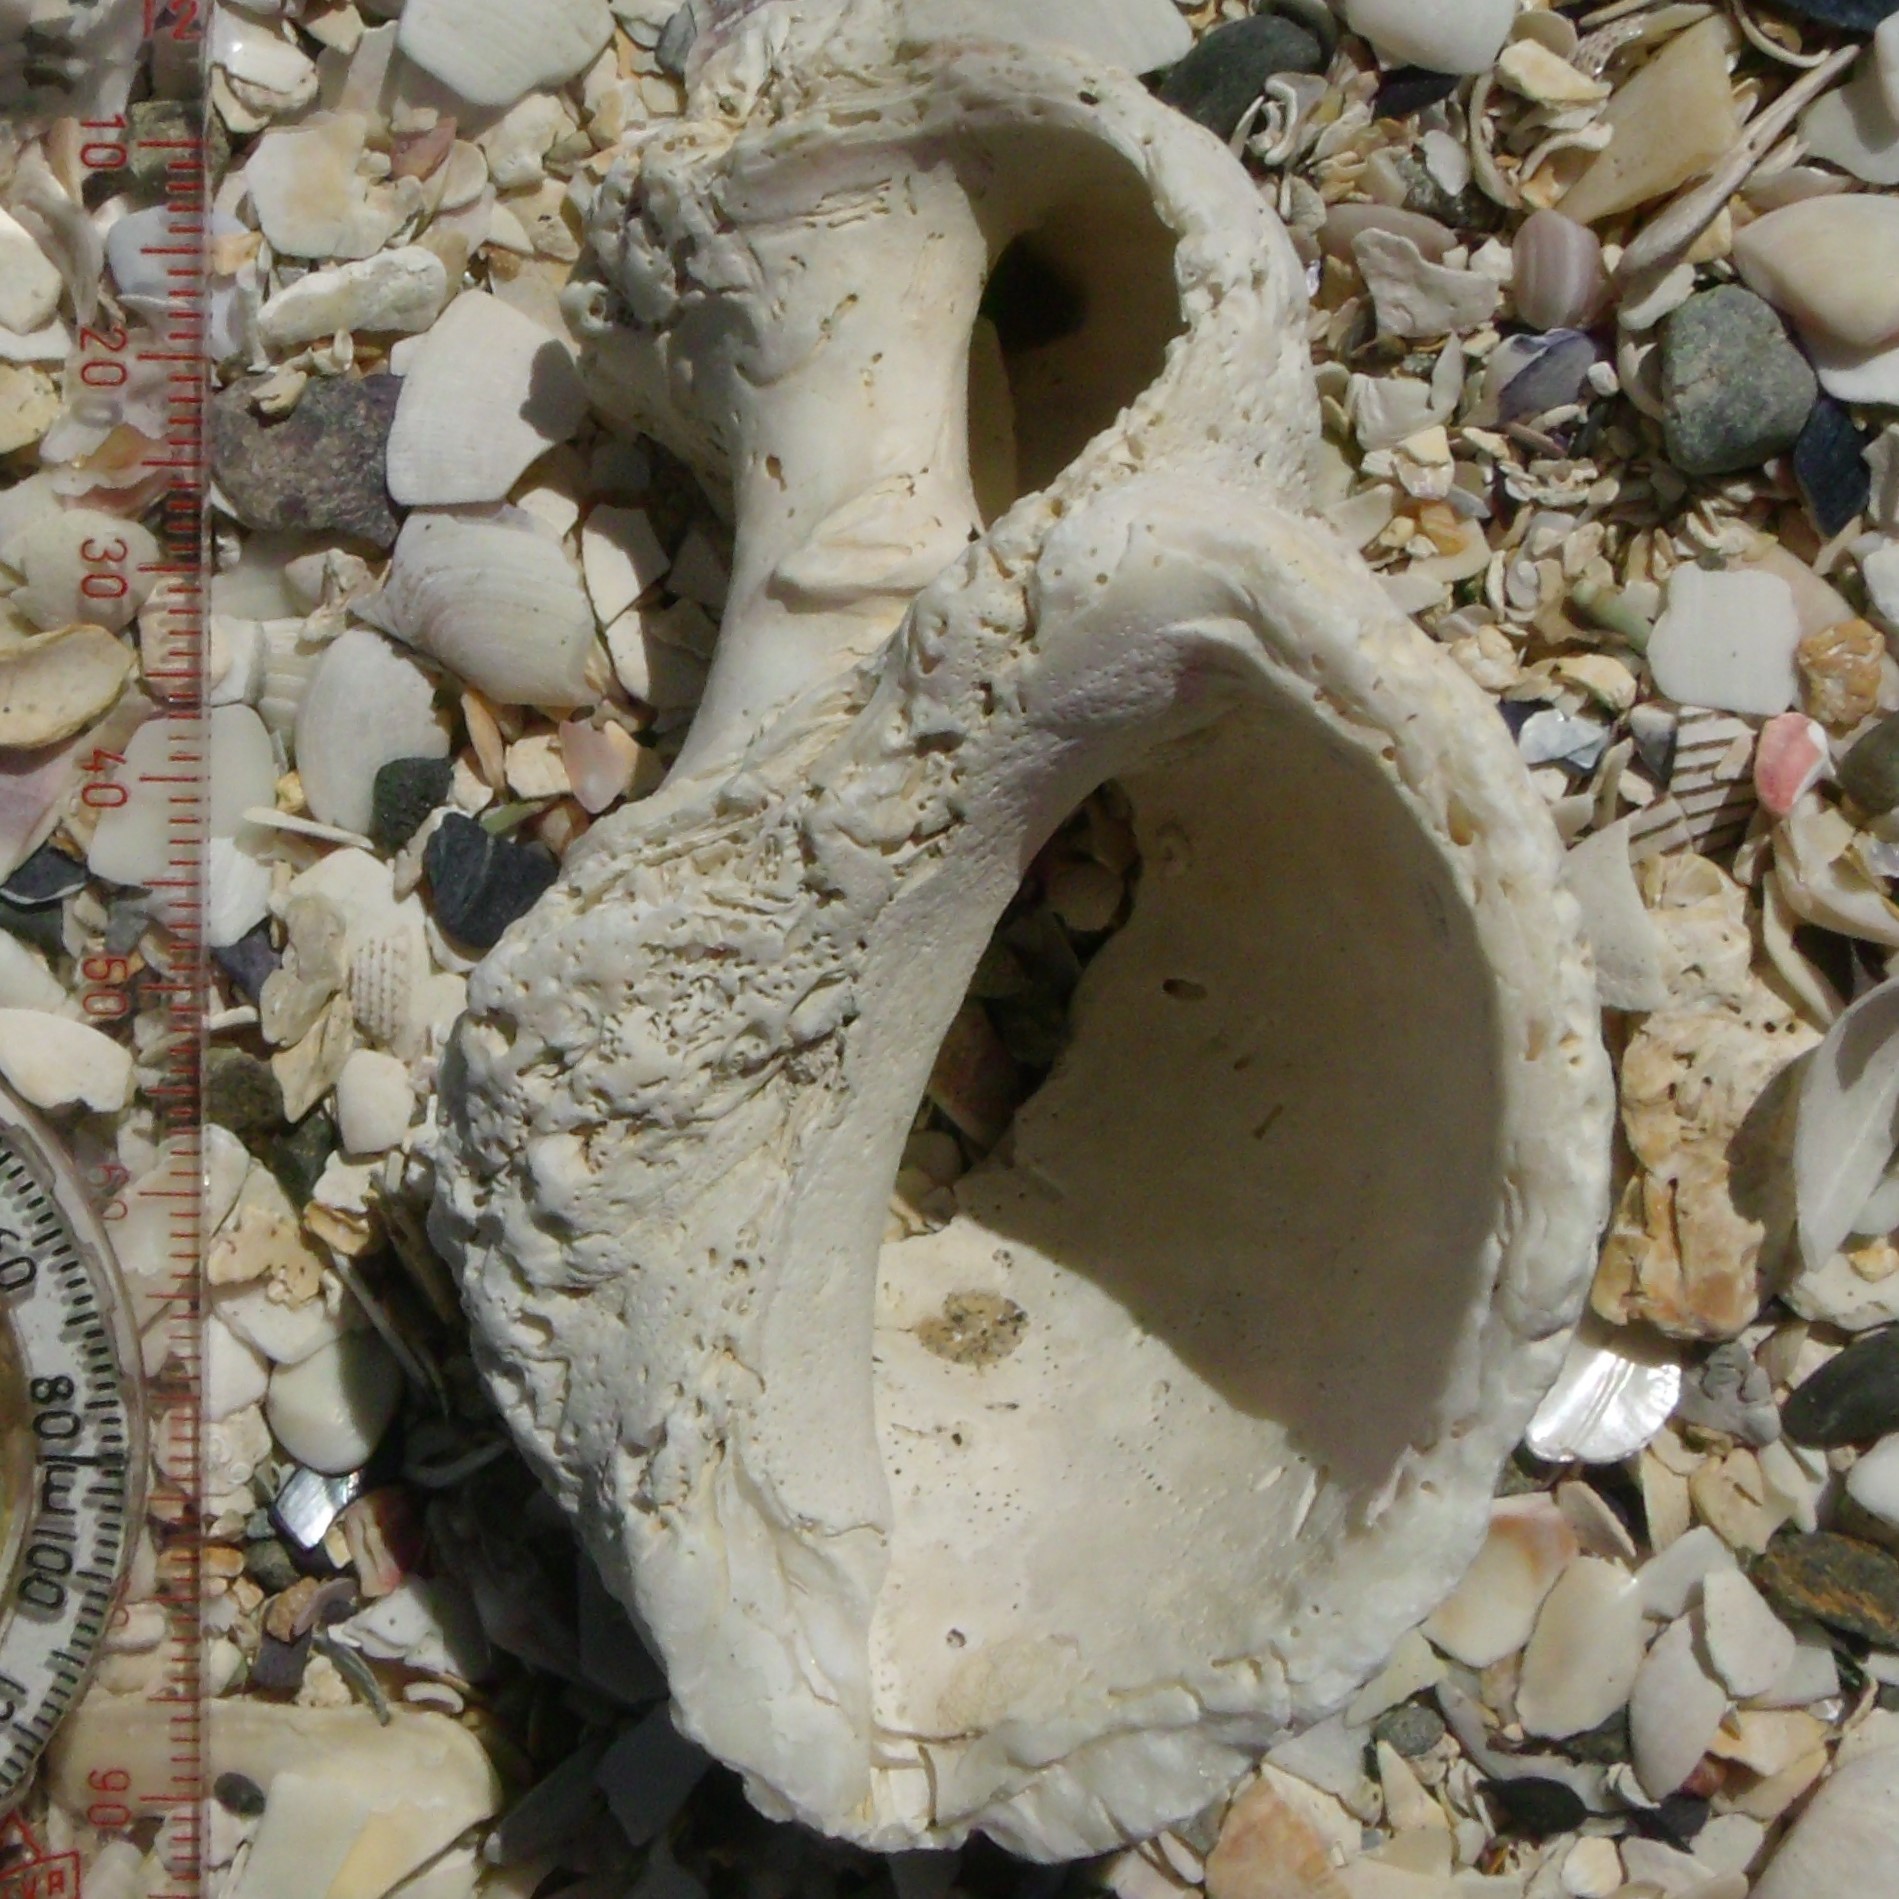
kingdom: Animalia
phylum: Mollusca
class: Gastropoda
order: Neogastropoda
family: Muricidae
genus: Dicathais
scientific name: Dicathais orbita
